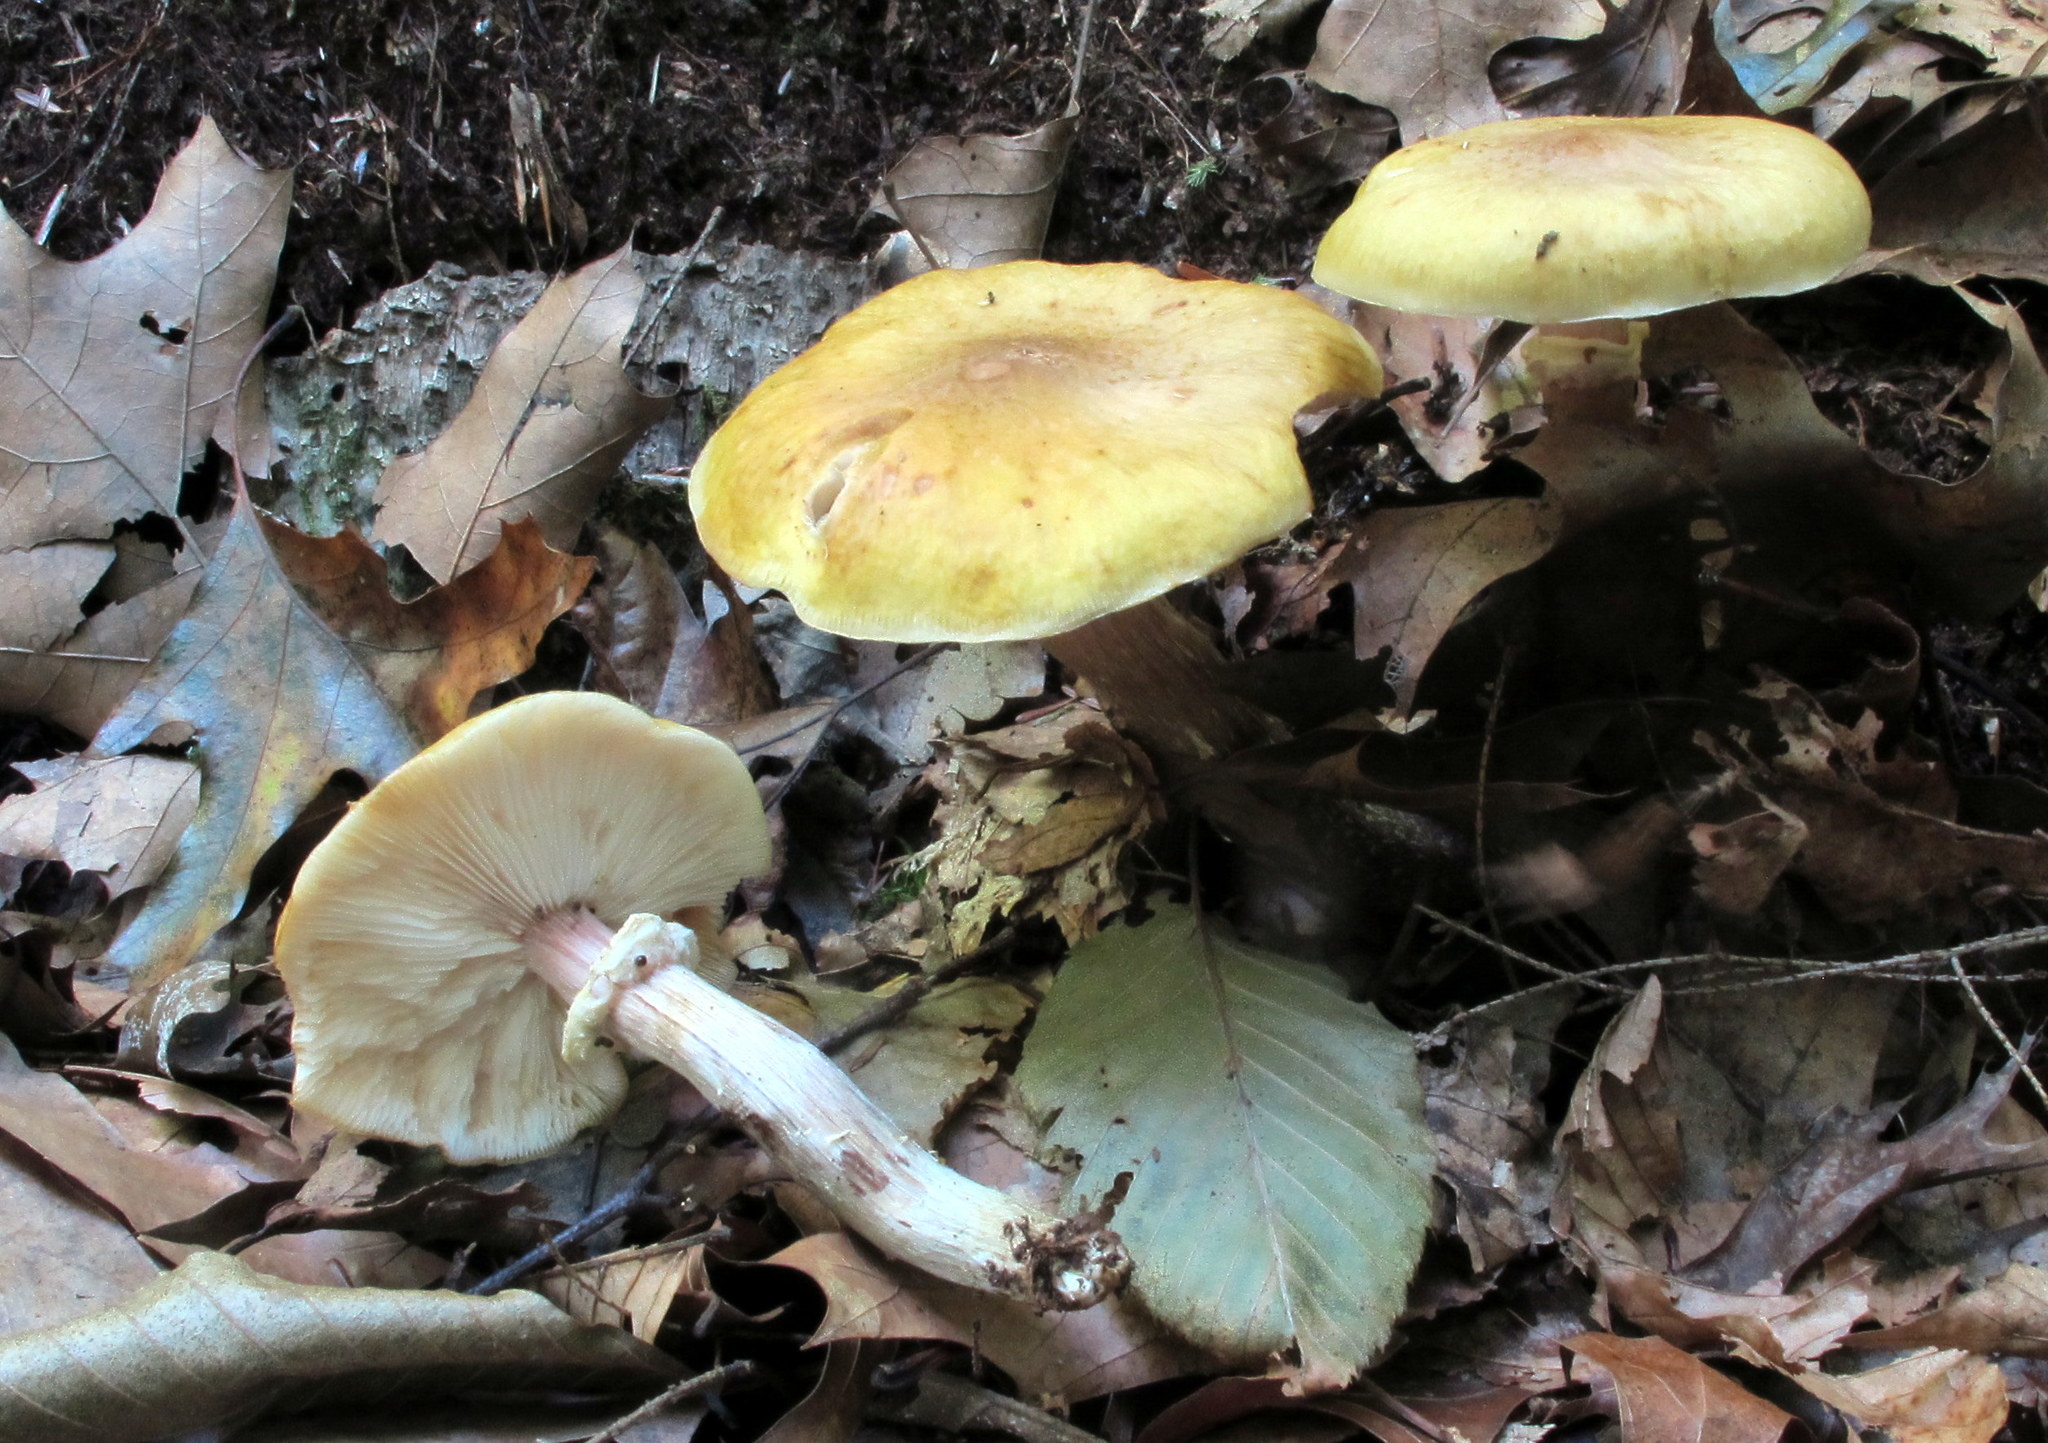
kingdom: Fungi
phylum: Basidiomycota
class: Agaricomycetes
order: Agaricales
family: Physalacriaceae
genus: Armillaria
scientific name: Armillaria mellea
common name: Honey fungus
